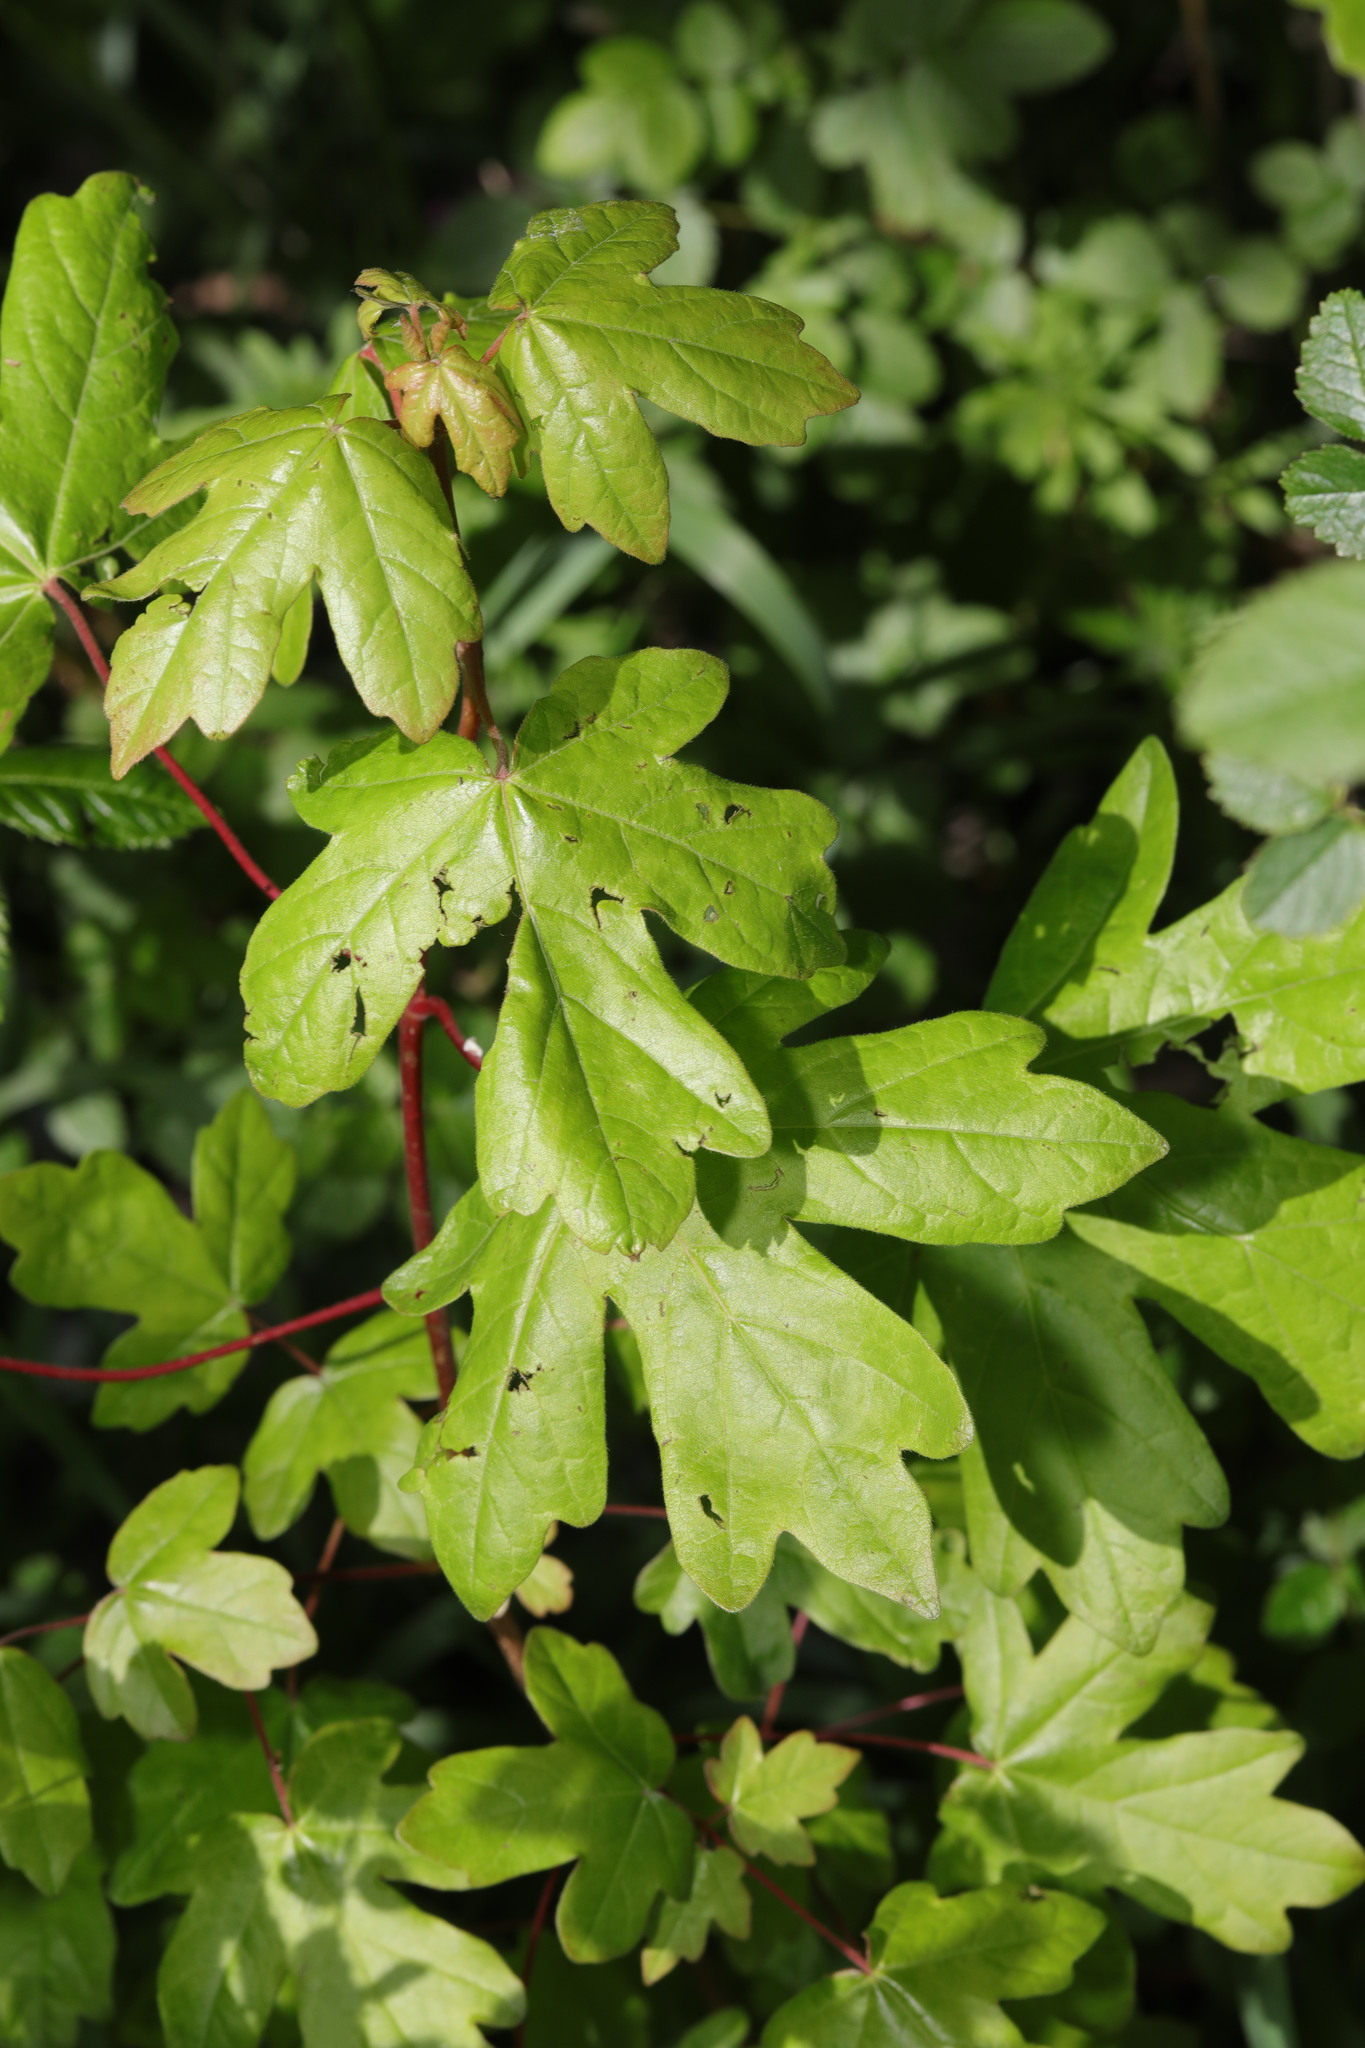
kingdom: Plantae
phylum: Tracheophyta
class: Magnoliopsida
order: Sapindales
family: Sapindaceae
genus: Acer
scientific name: Acer campestre
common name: Field maple
